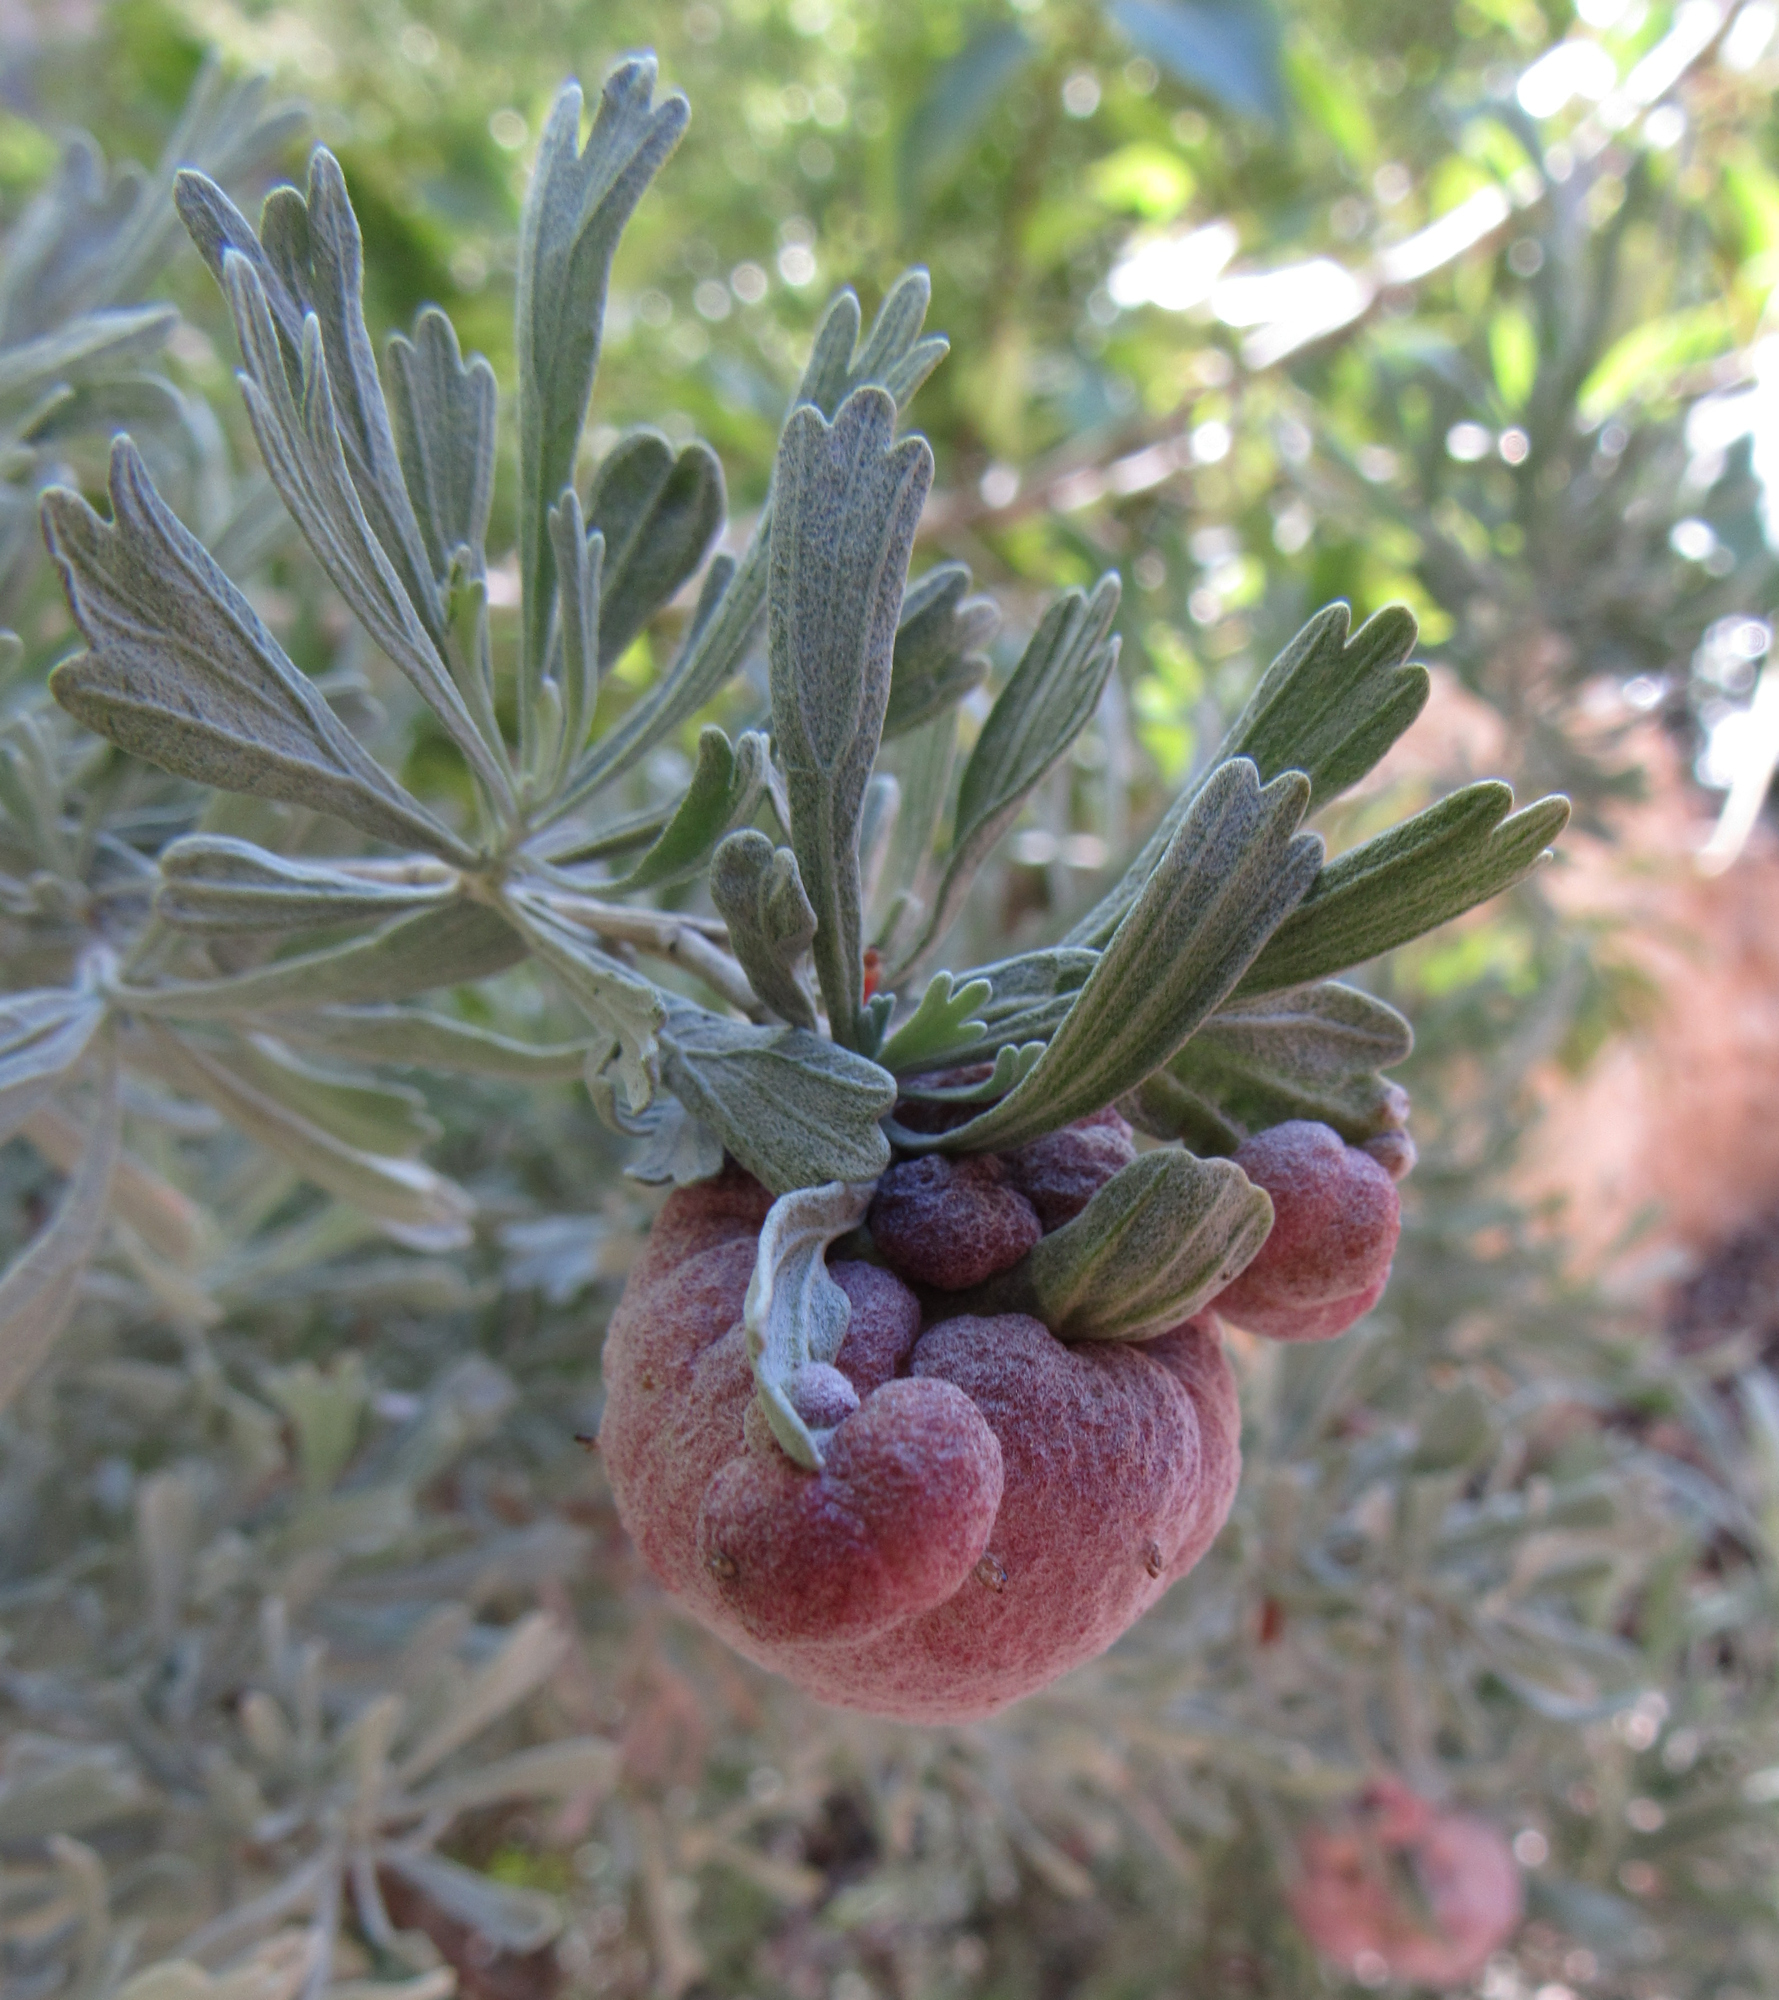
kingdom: Animalia
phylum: Arthropoda
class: Insecta
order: Diptera
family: Cecidomyiidae
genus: Rhopalomyia
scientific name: Rhopalomyia pomum
